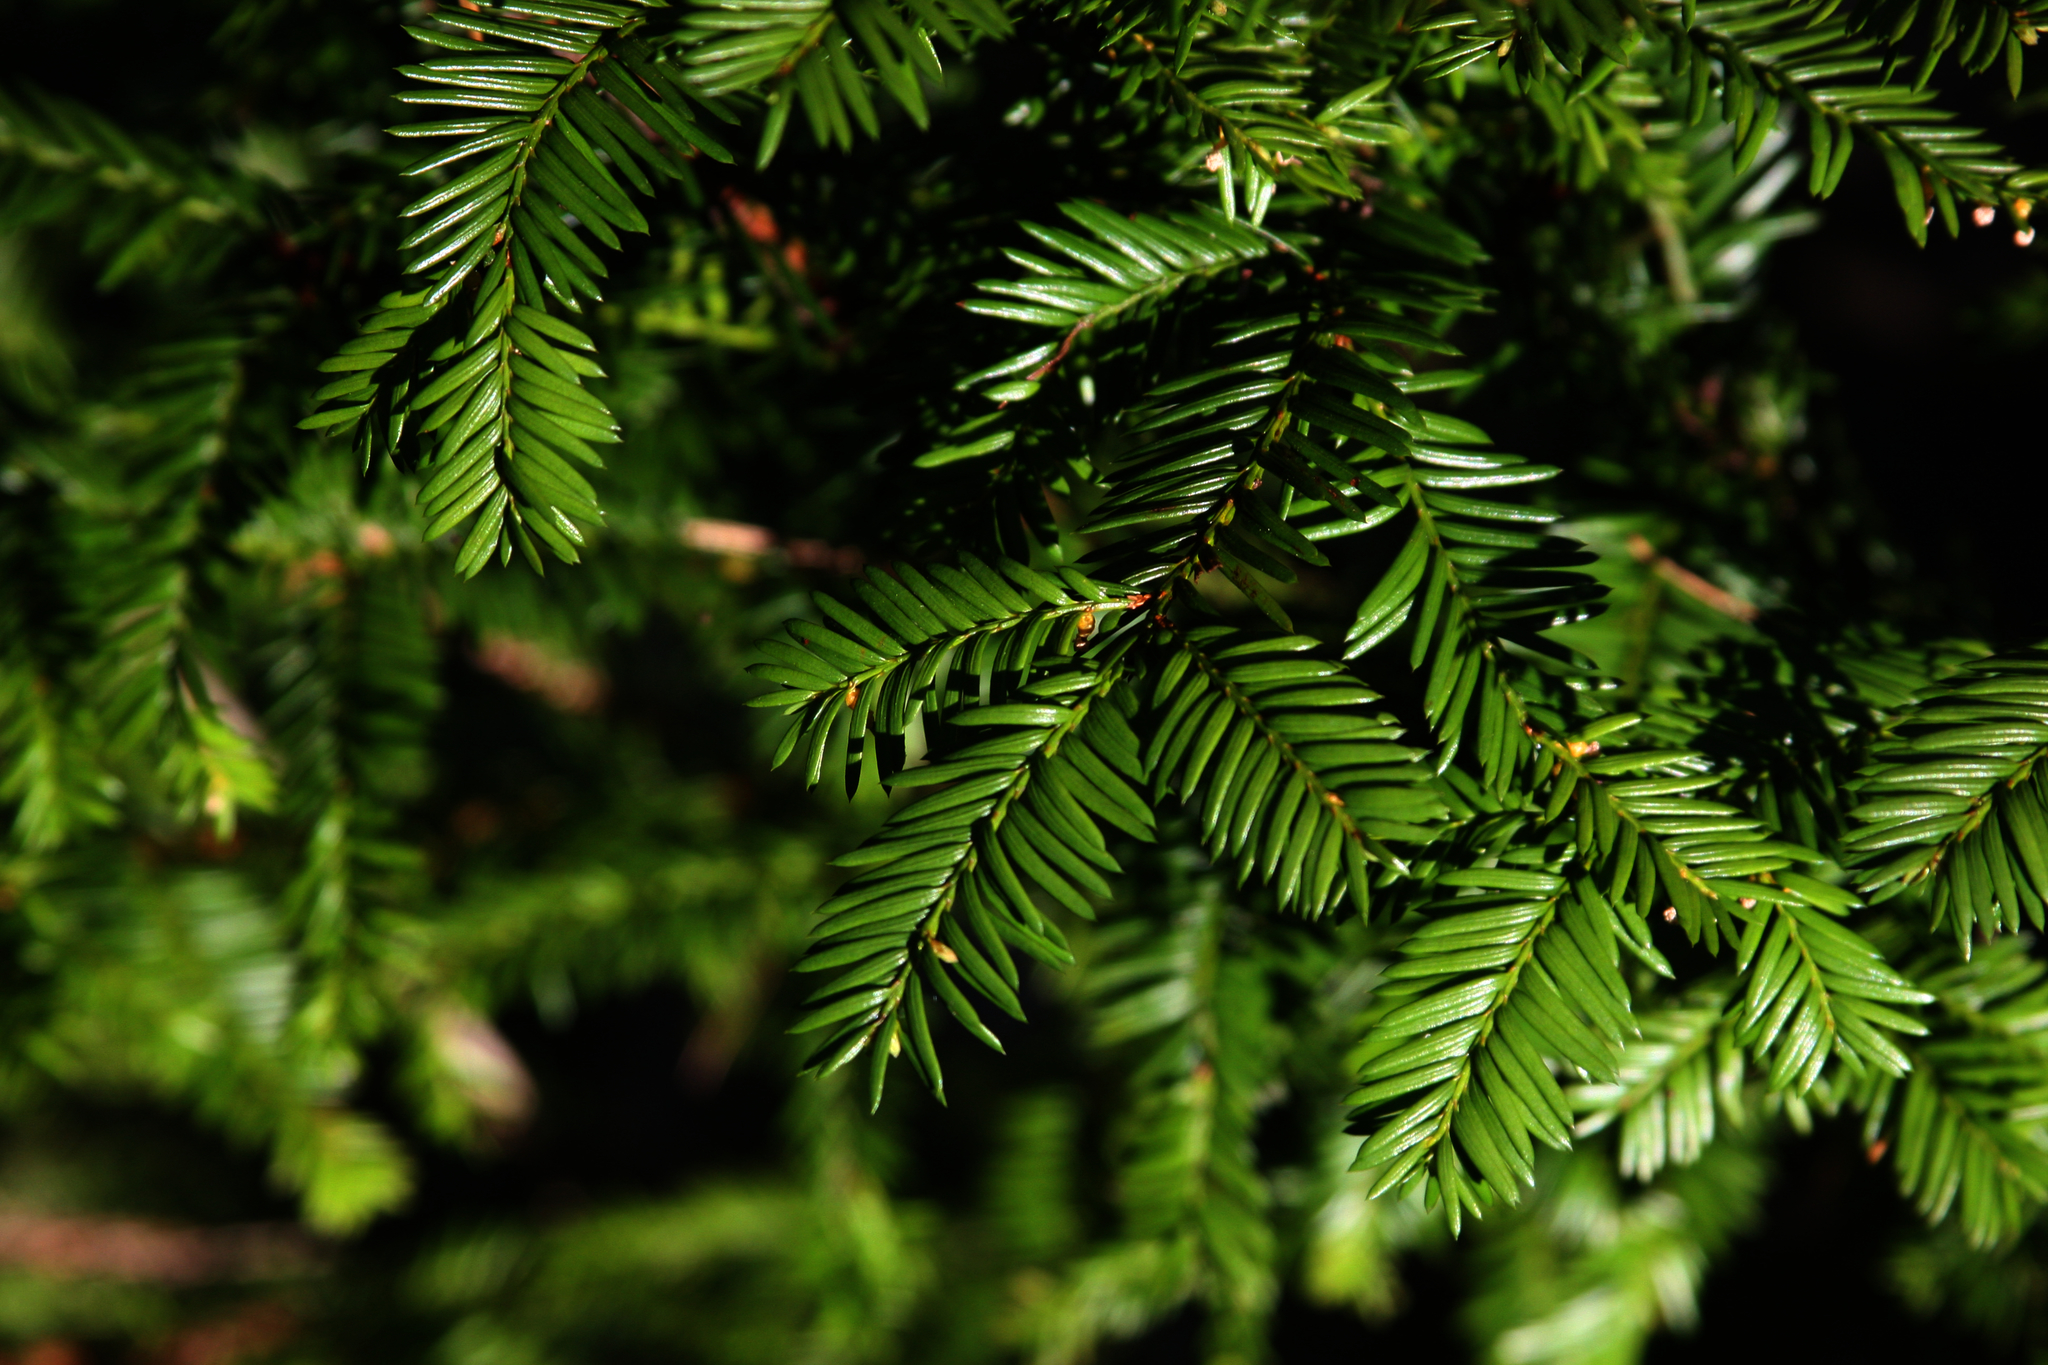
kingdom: Plantae
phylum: Tracheophyta
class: Pinopsida
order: Pinales
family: Taxaceae
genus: Taxus
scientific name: Taxus canadensis
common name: American yew
